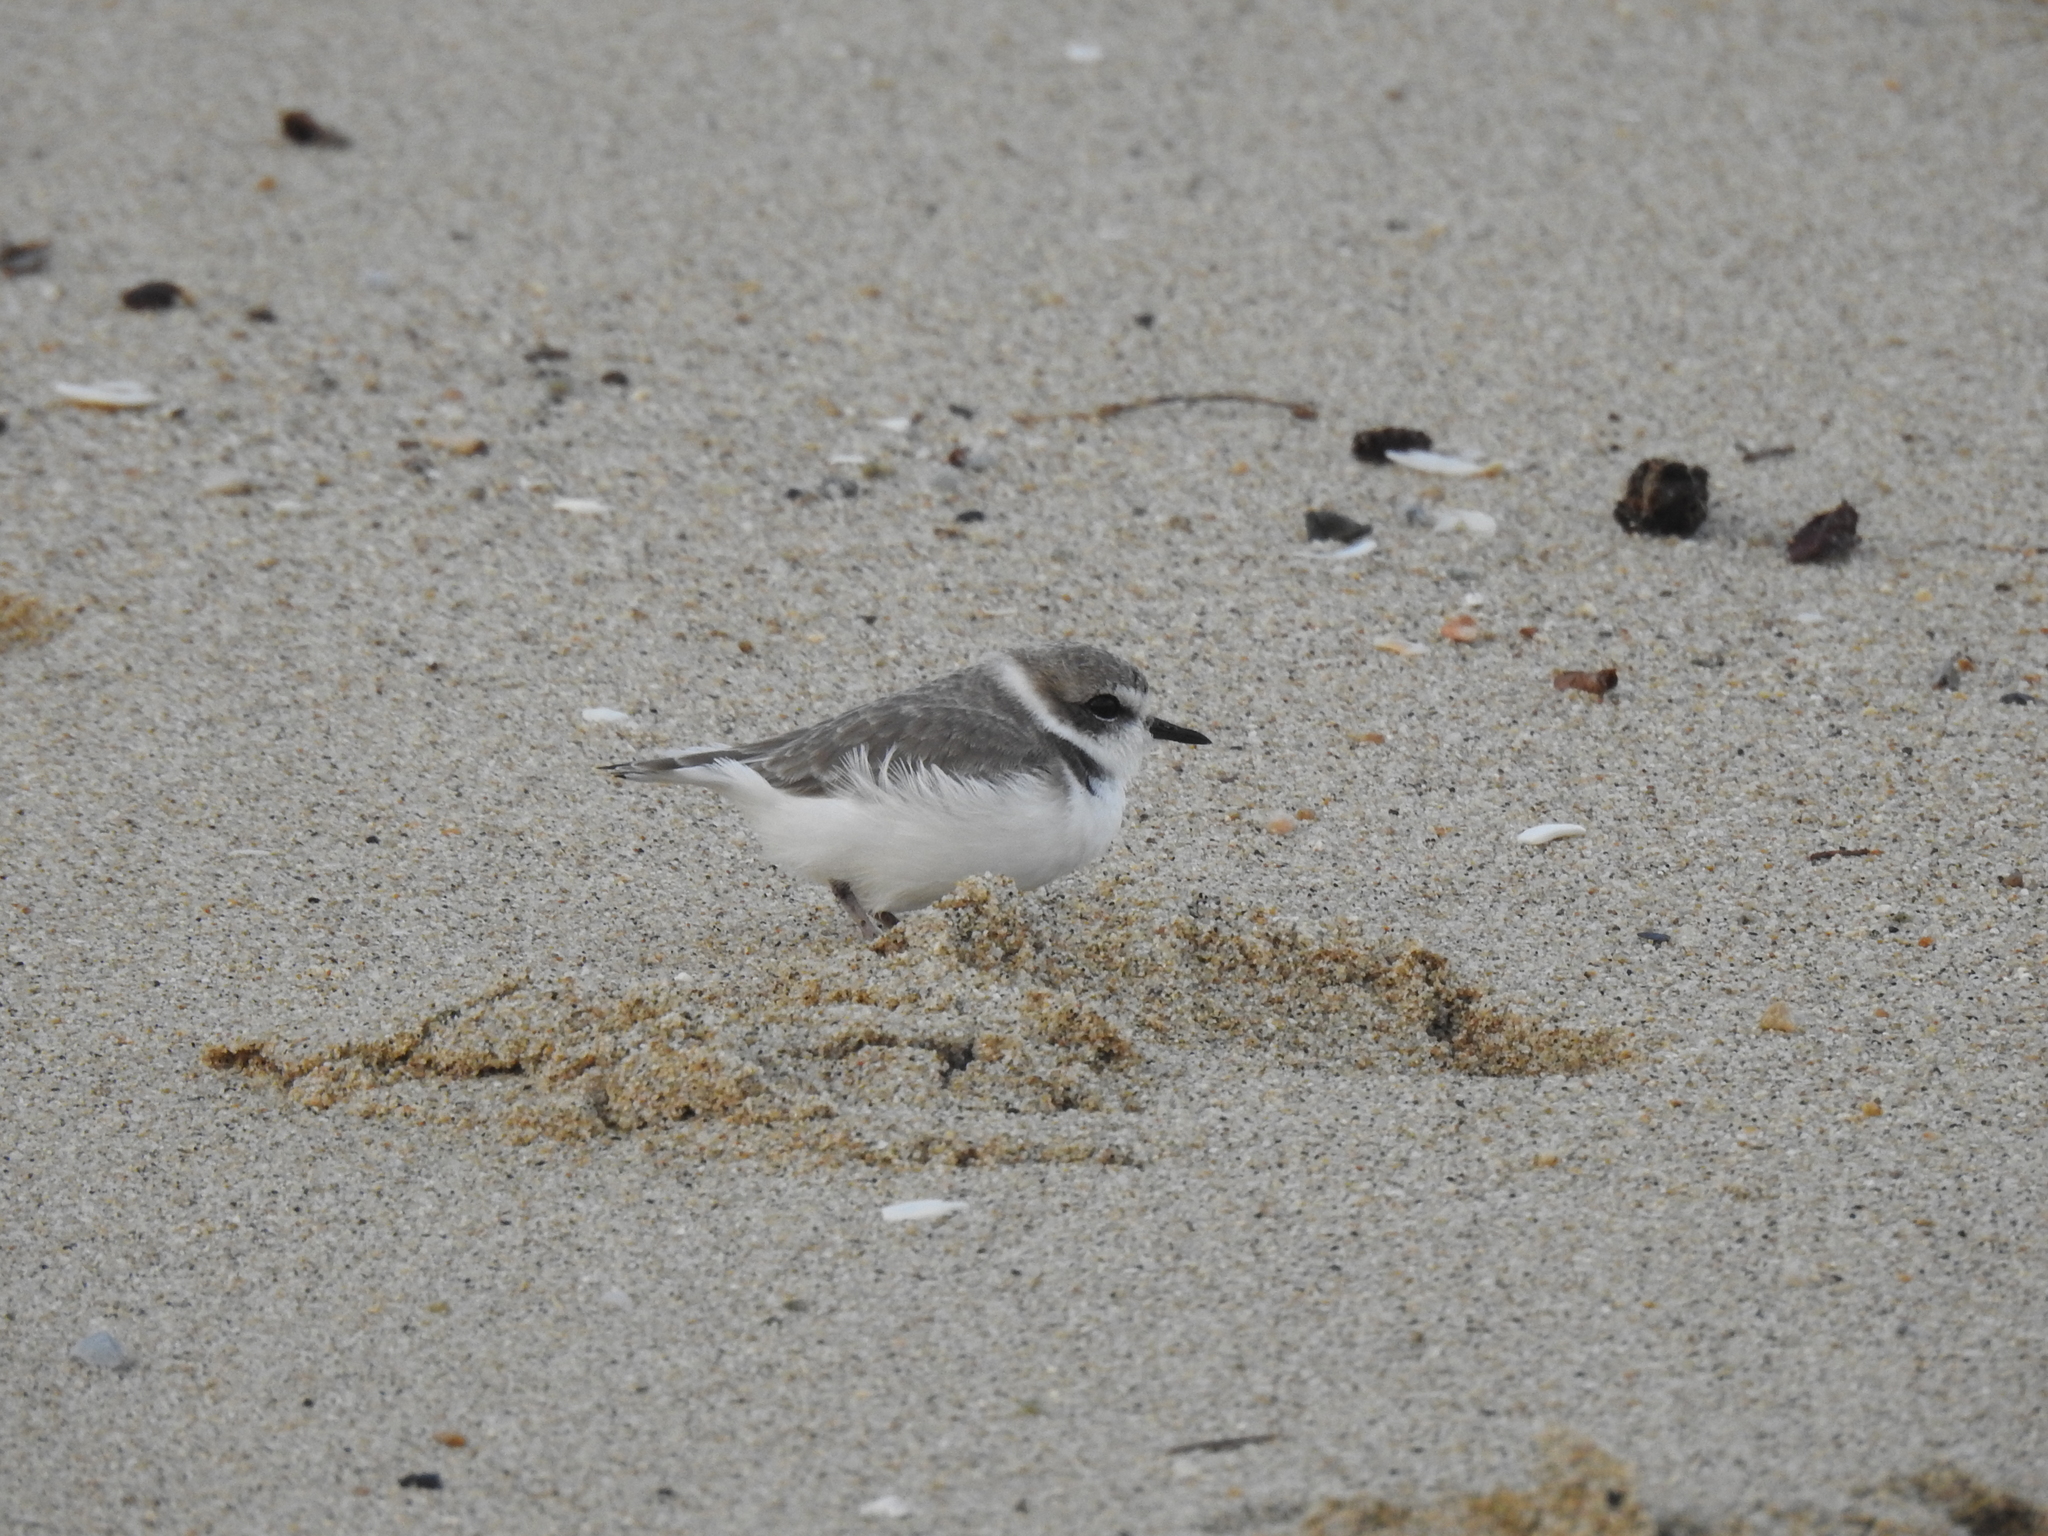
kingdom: Animalia
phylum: Chordata
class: Aves
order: Charadriiformes
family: Charadriidae
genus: Anarhynchus
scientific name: Anarhynchus
